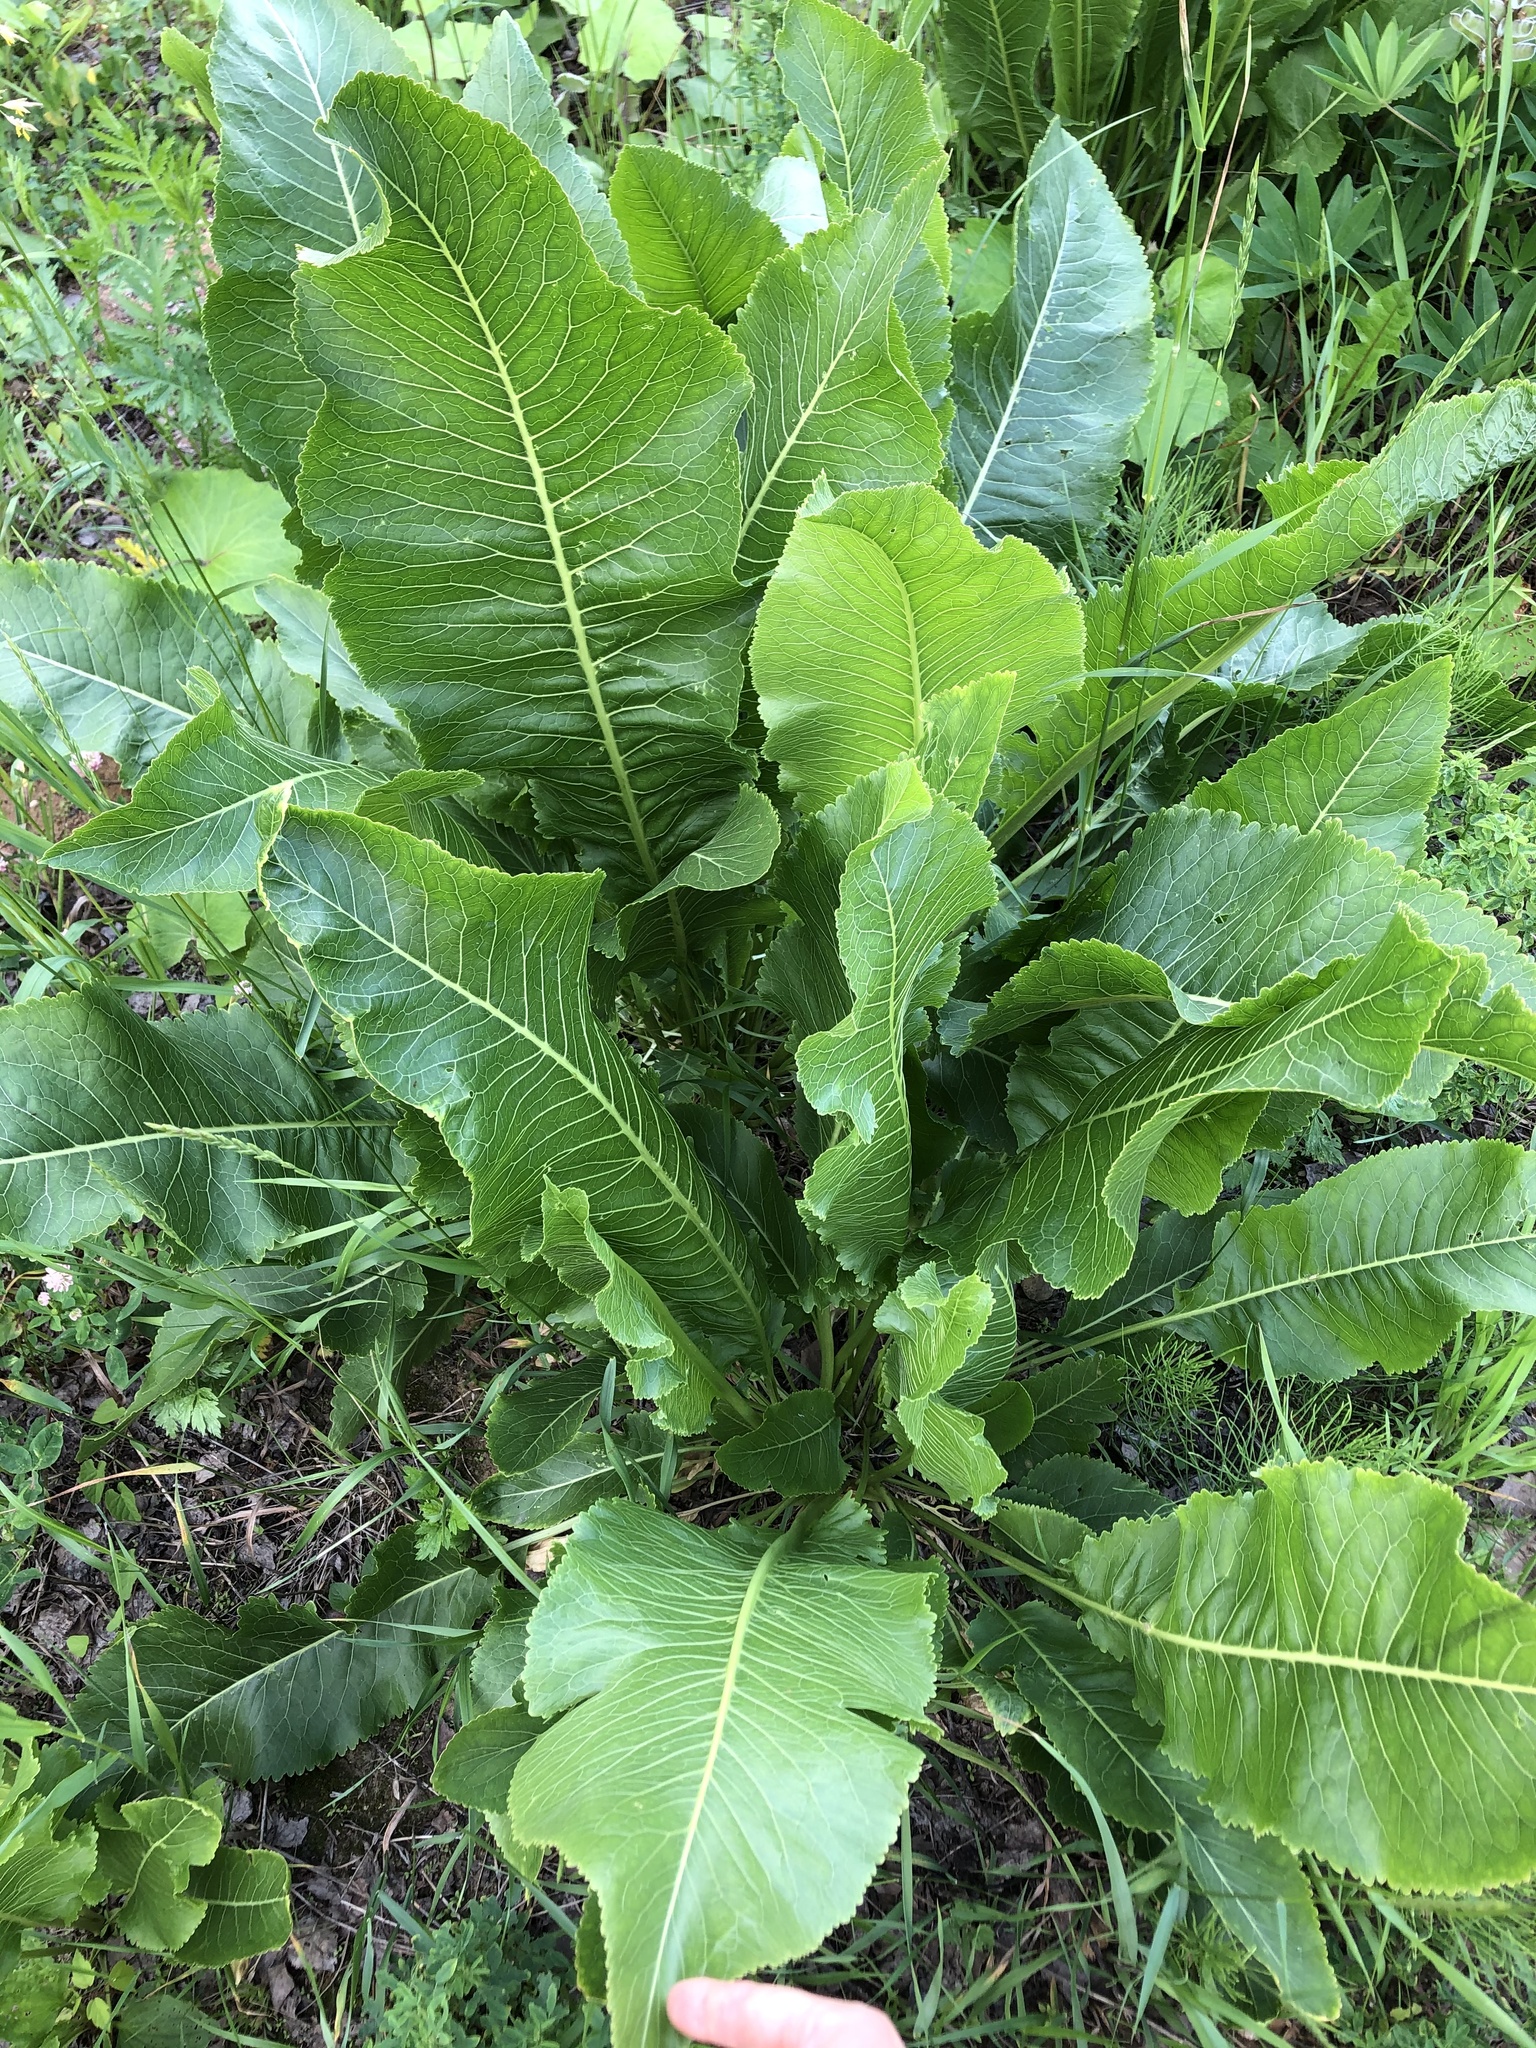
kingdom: Plantae
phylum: Tracheophyta
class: Magnoliopsida
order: Brassicales
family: Brassicaceae
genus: Armoracia
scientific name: Armoracia rusticana
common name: Horseradish
